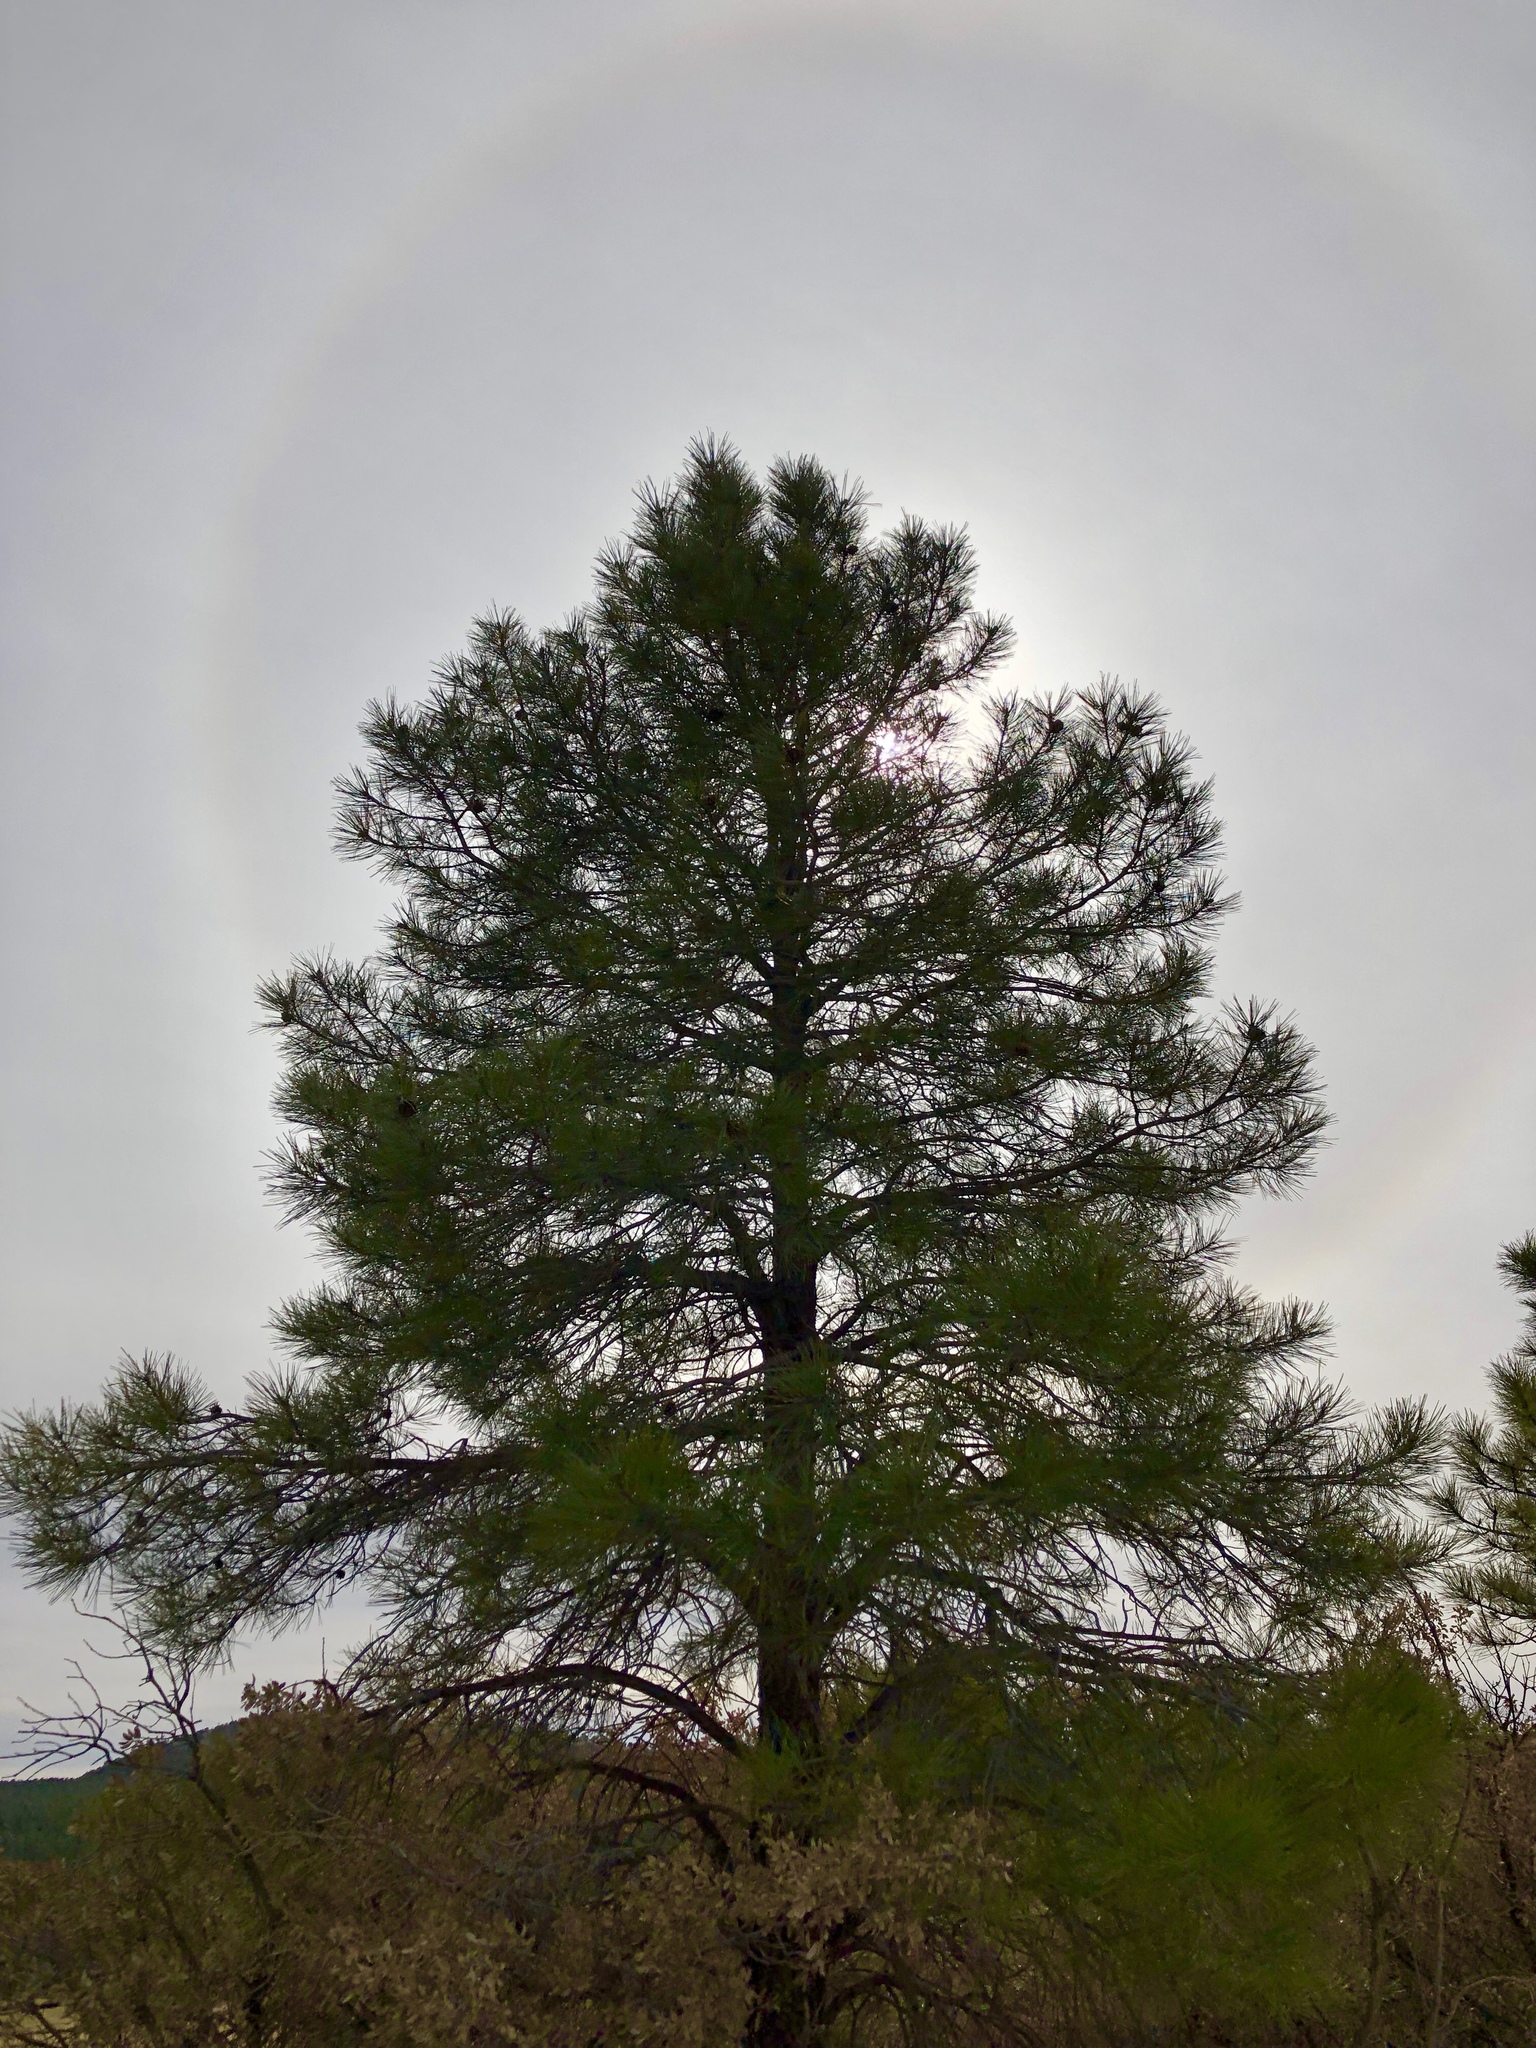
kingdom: Plantae
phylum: Tracheophyta
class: Pinopsida
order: Pinales
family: Pinaceae
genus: Pinus
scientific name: Pinus ponderosa
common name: Western yellow-pine
